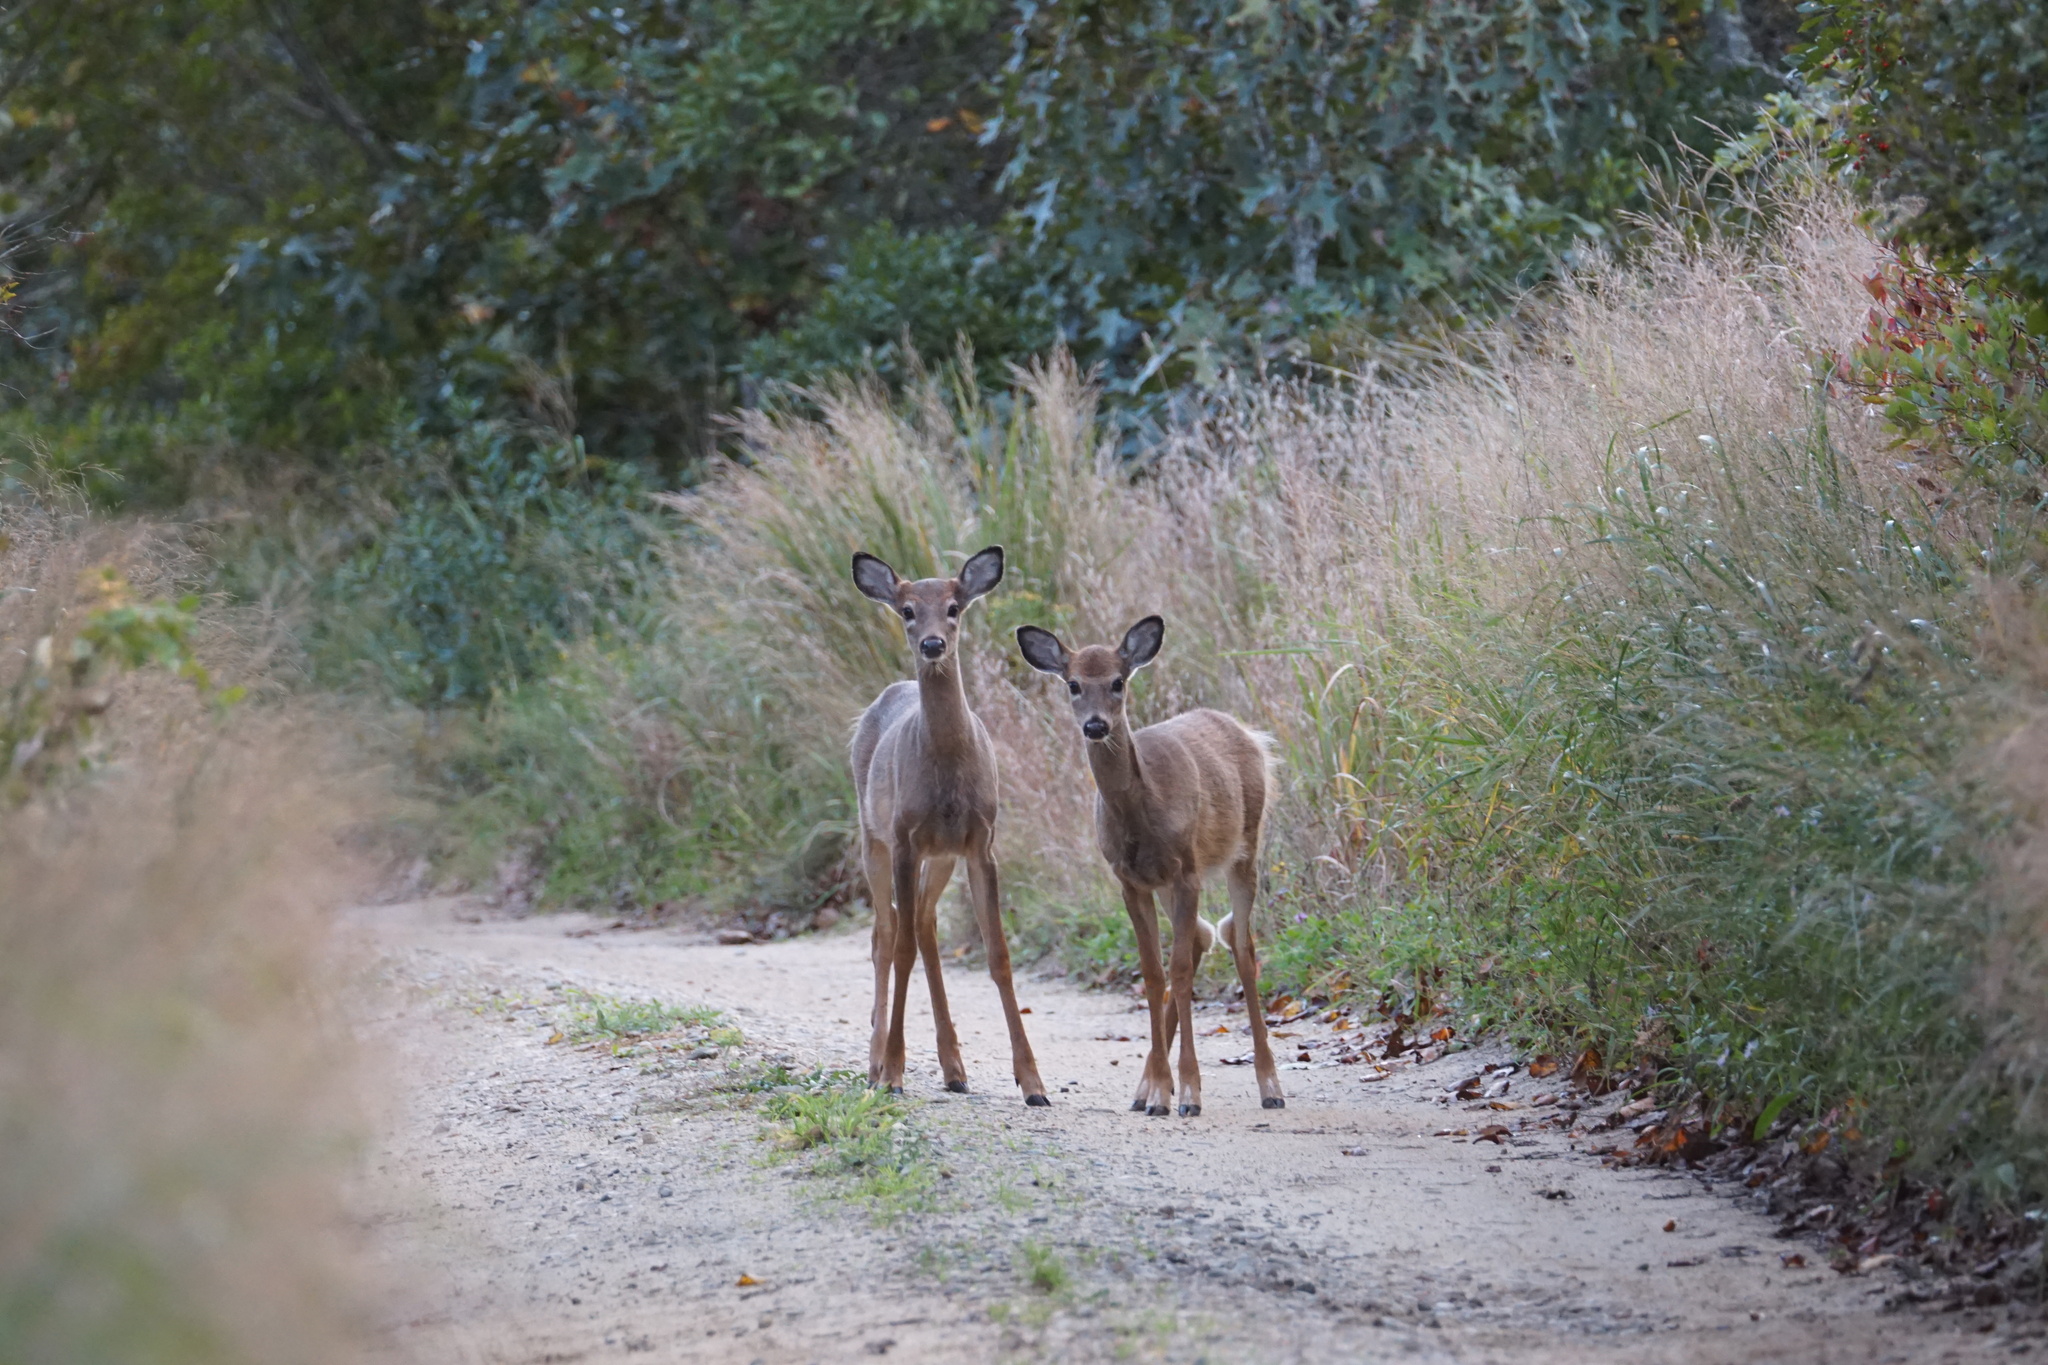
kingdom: Animalia
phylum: Chordata
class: Mammalia
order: Artiodactyla
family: Cervidae
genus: Odocoileus
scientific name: Odocoileus virginianus
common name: White-tailed deer
